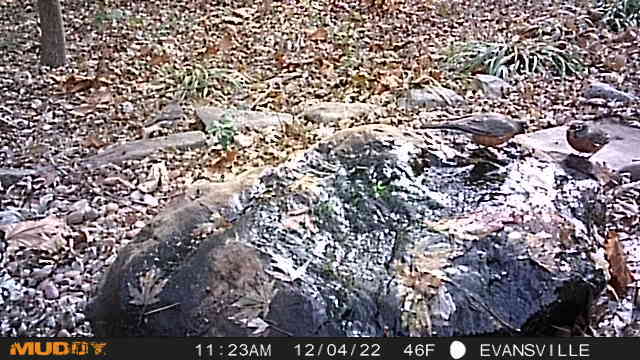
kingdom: Animalia
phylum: Chordata
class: Aves
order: Passeriformes
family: Turdidae
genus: Turdus
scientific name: Turdus migratorius
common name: American robin
